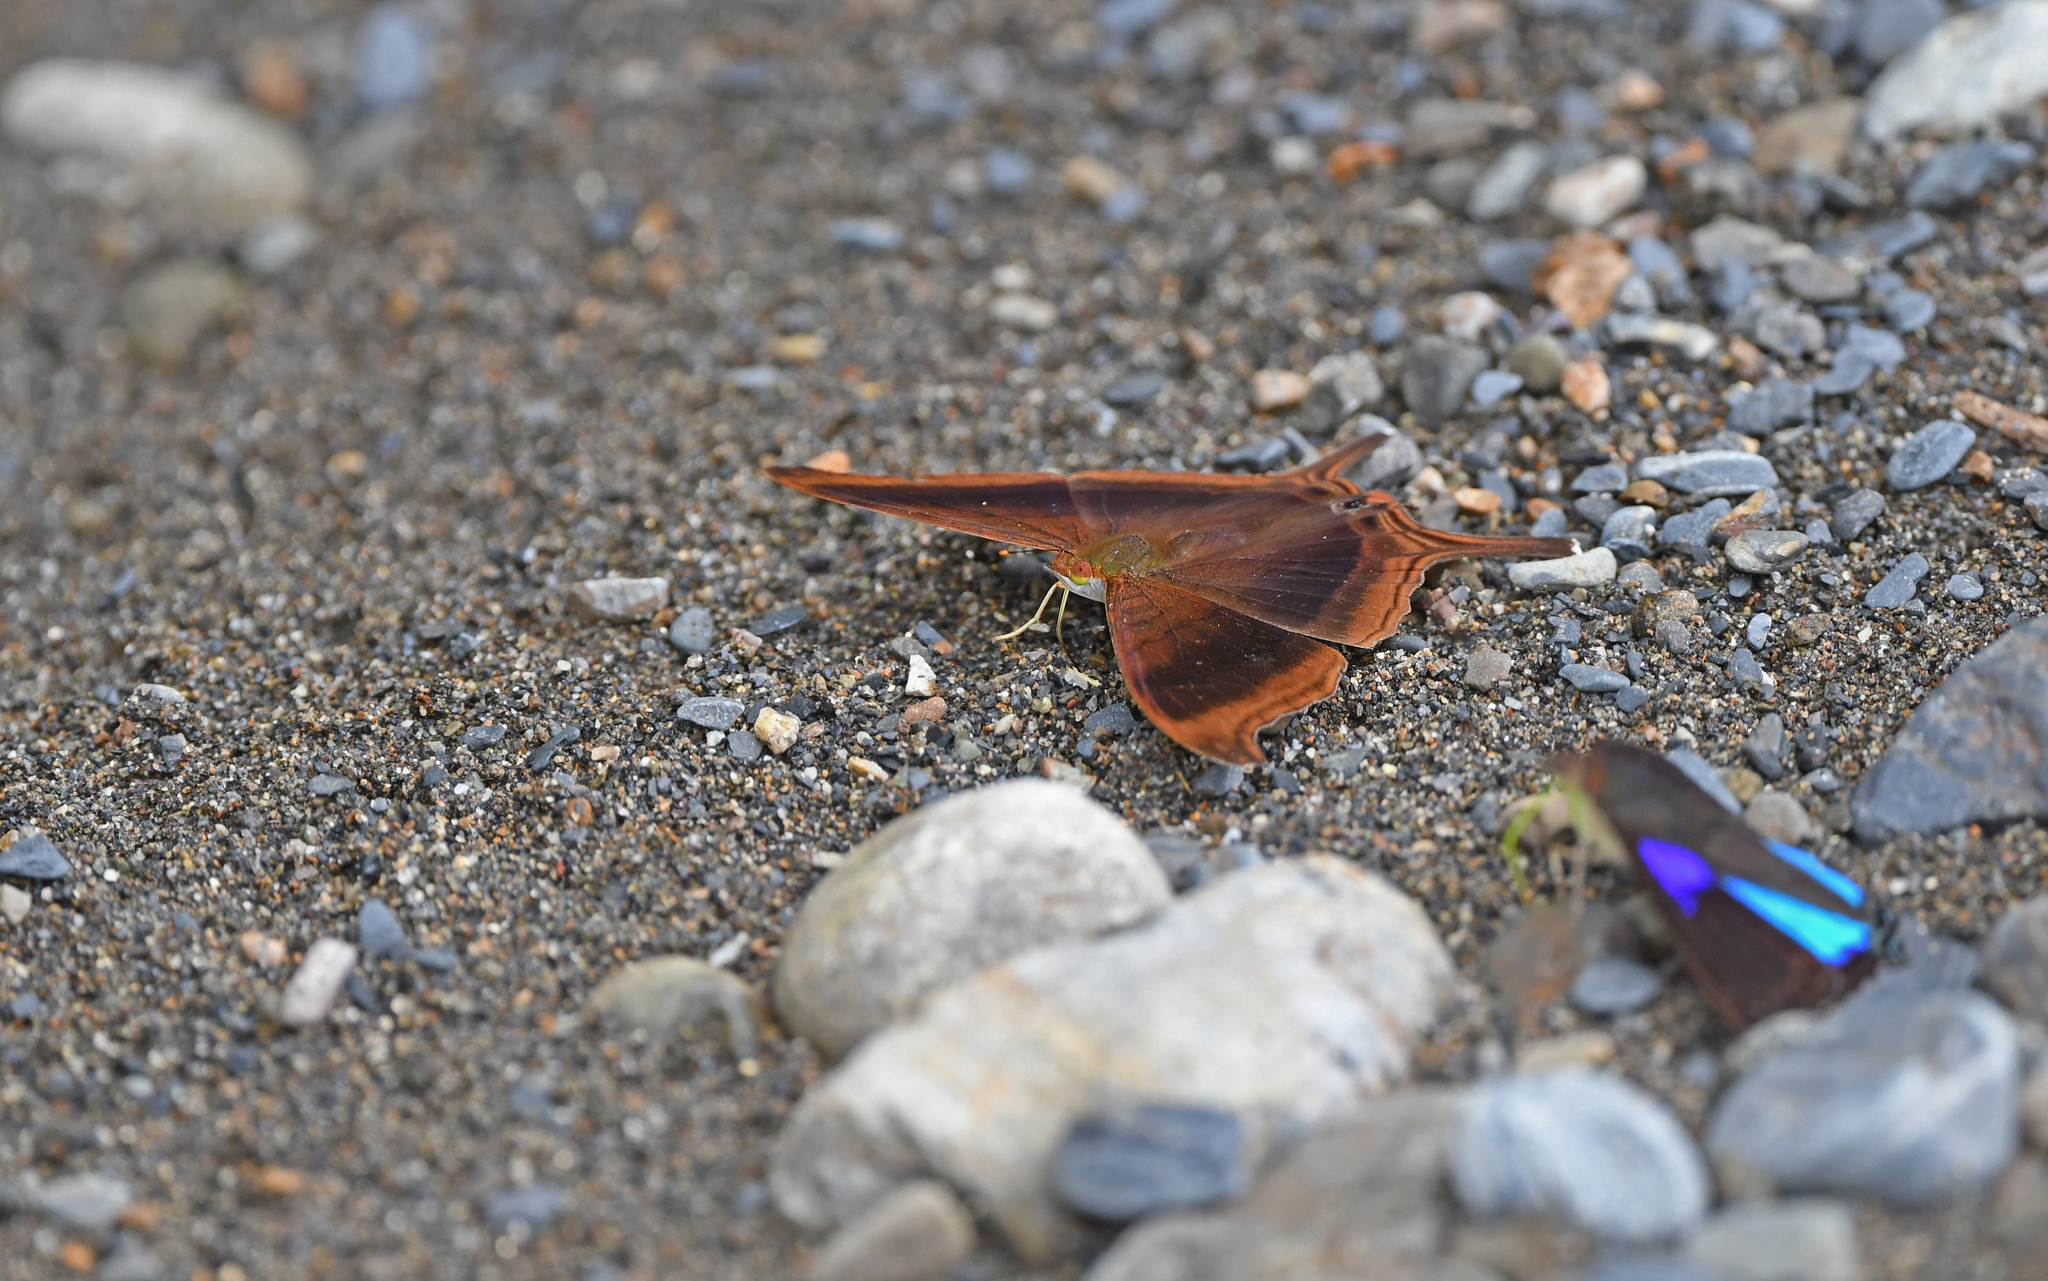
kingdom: Animalia
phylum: Arthropoda
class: Insecta
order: Lepidoptera
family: Nymphalidae
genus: Marpesia
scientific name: Marpesia zerynthia
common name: Waiter daggerwing
